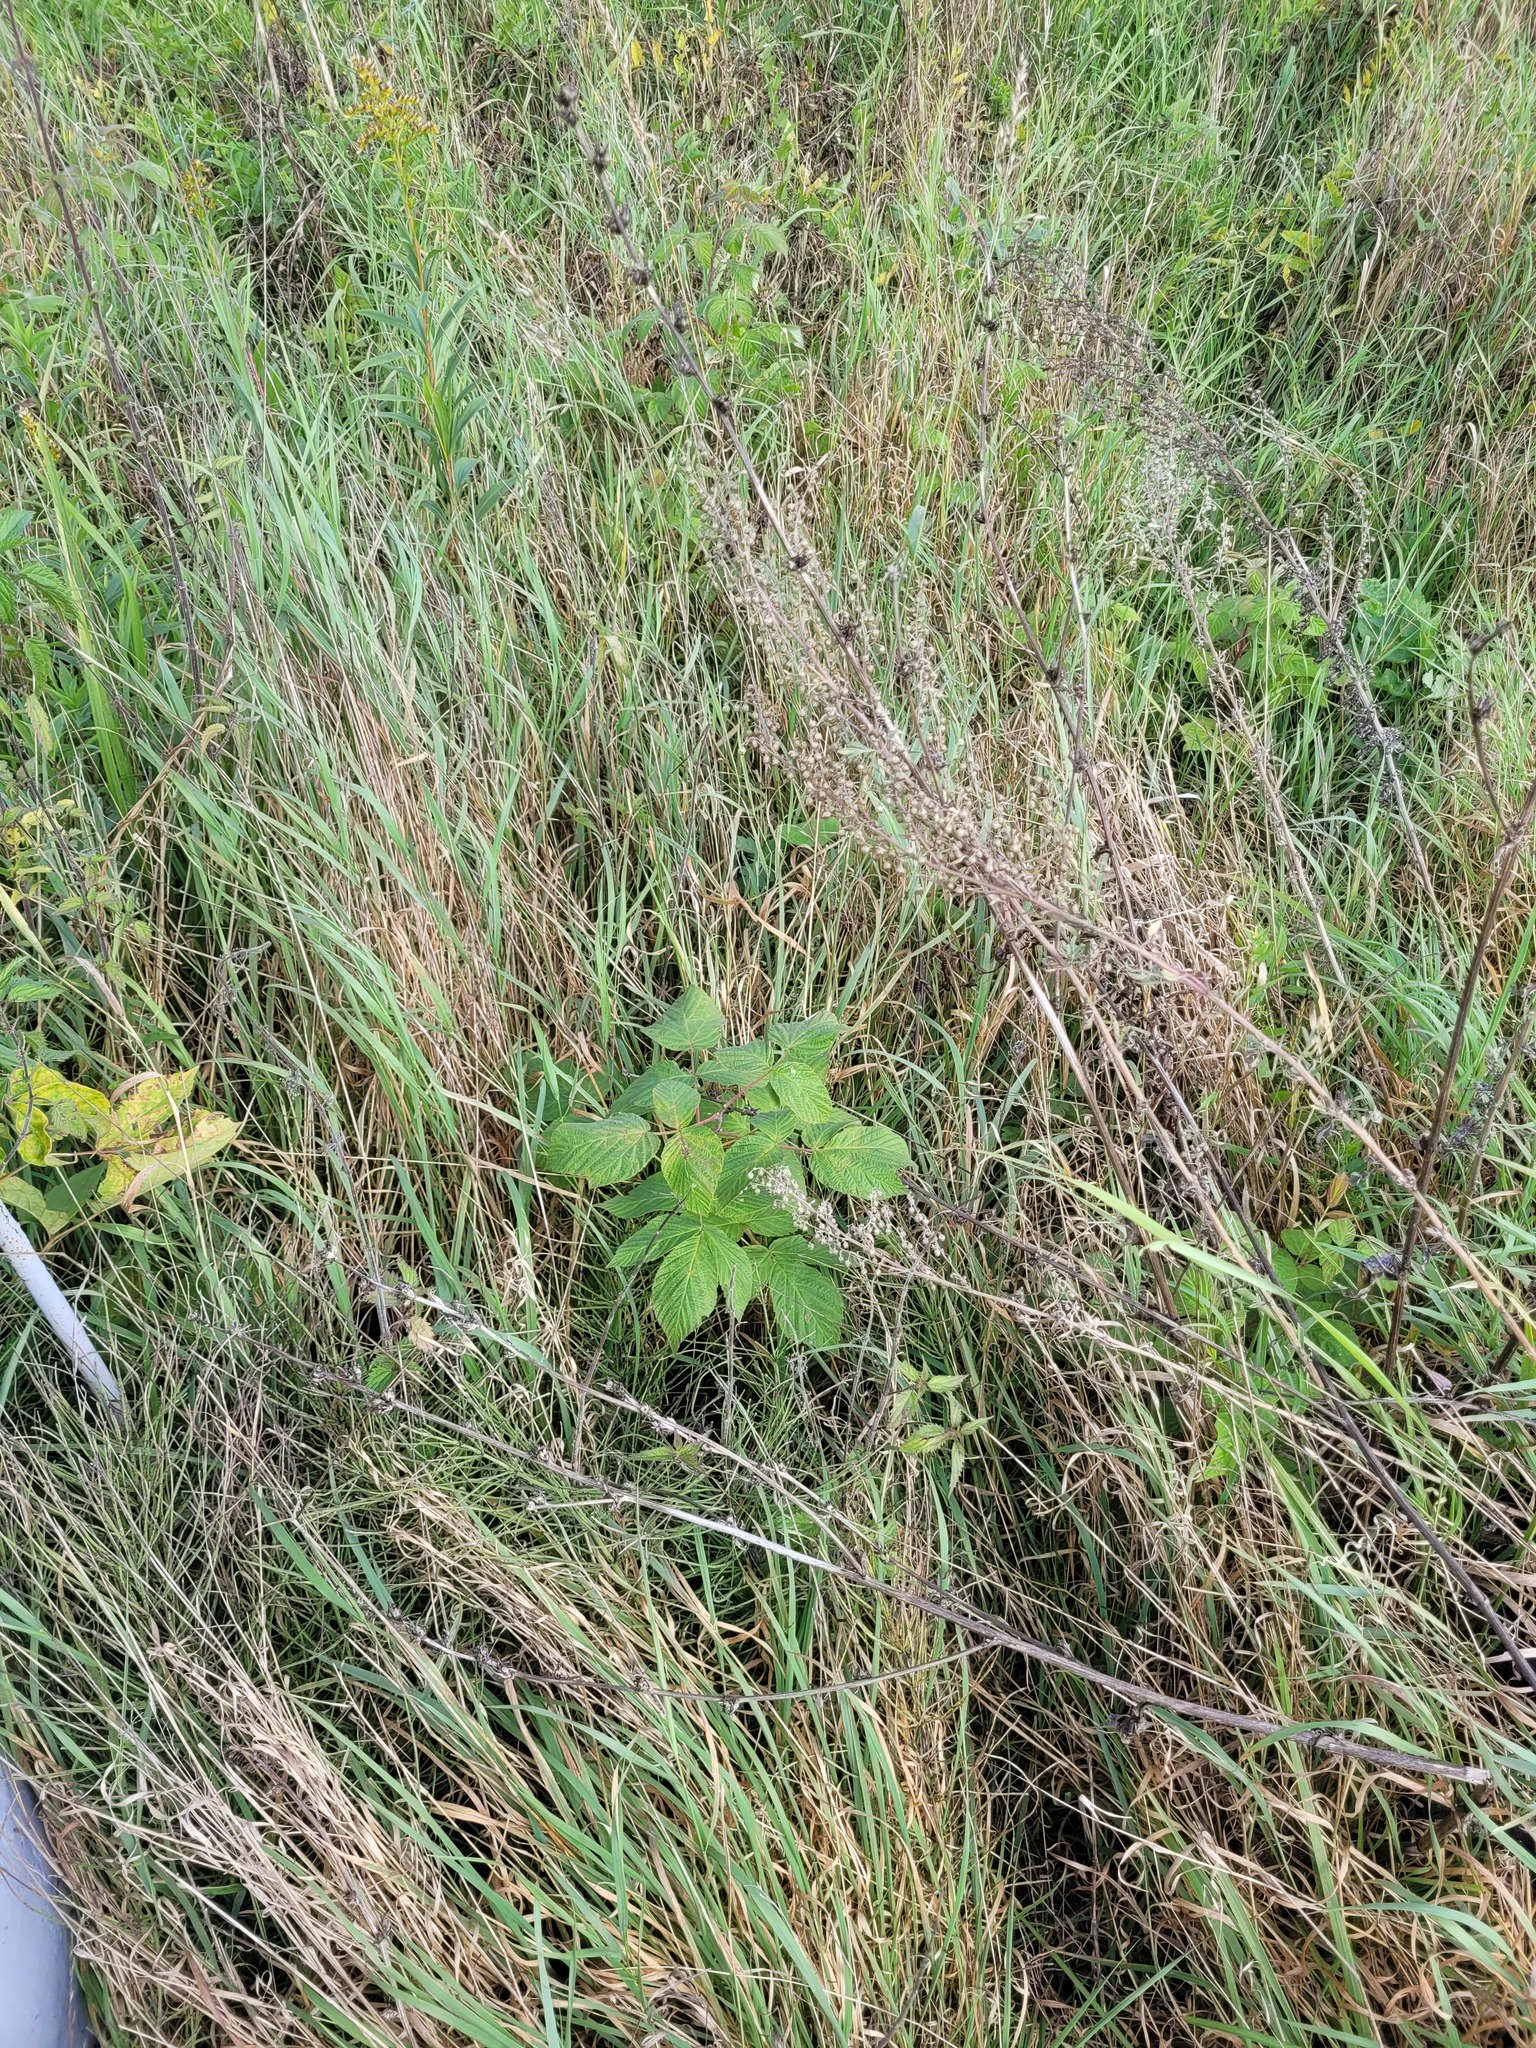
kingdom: Plantae
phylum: Tracheophyta
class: Magnoliopsida
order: Rosales
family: Rosaceae
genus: Rubus
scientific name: Rubus idaeus
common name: Raspberry
